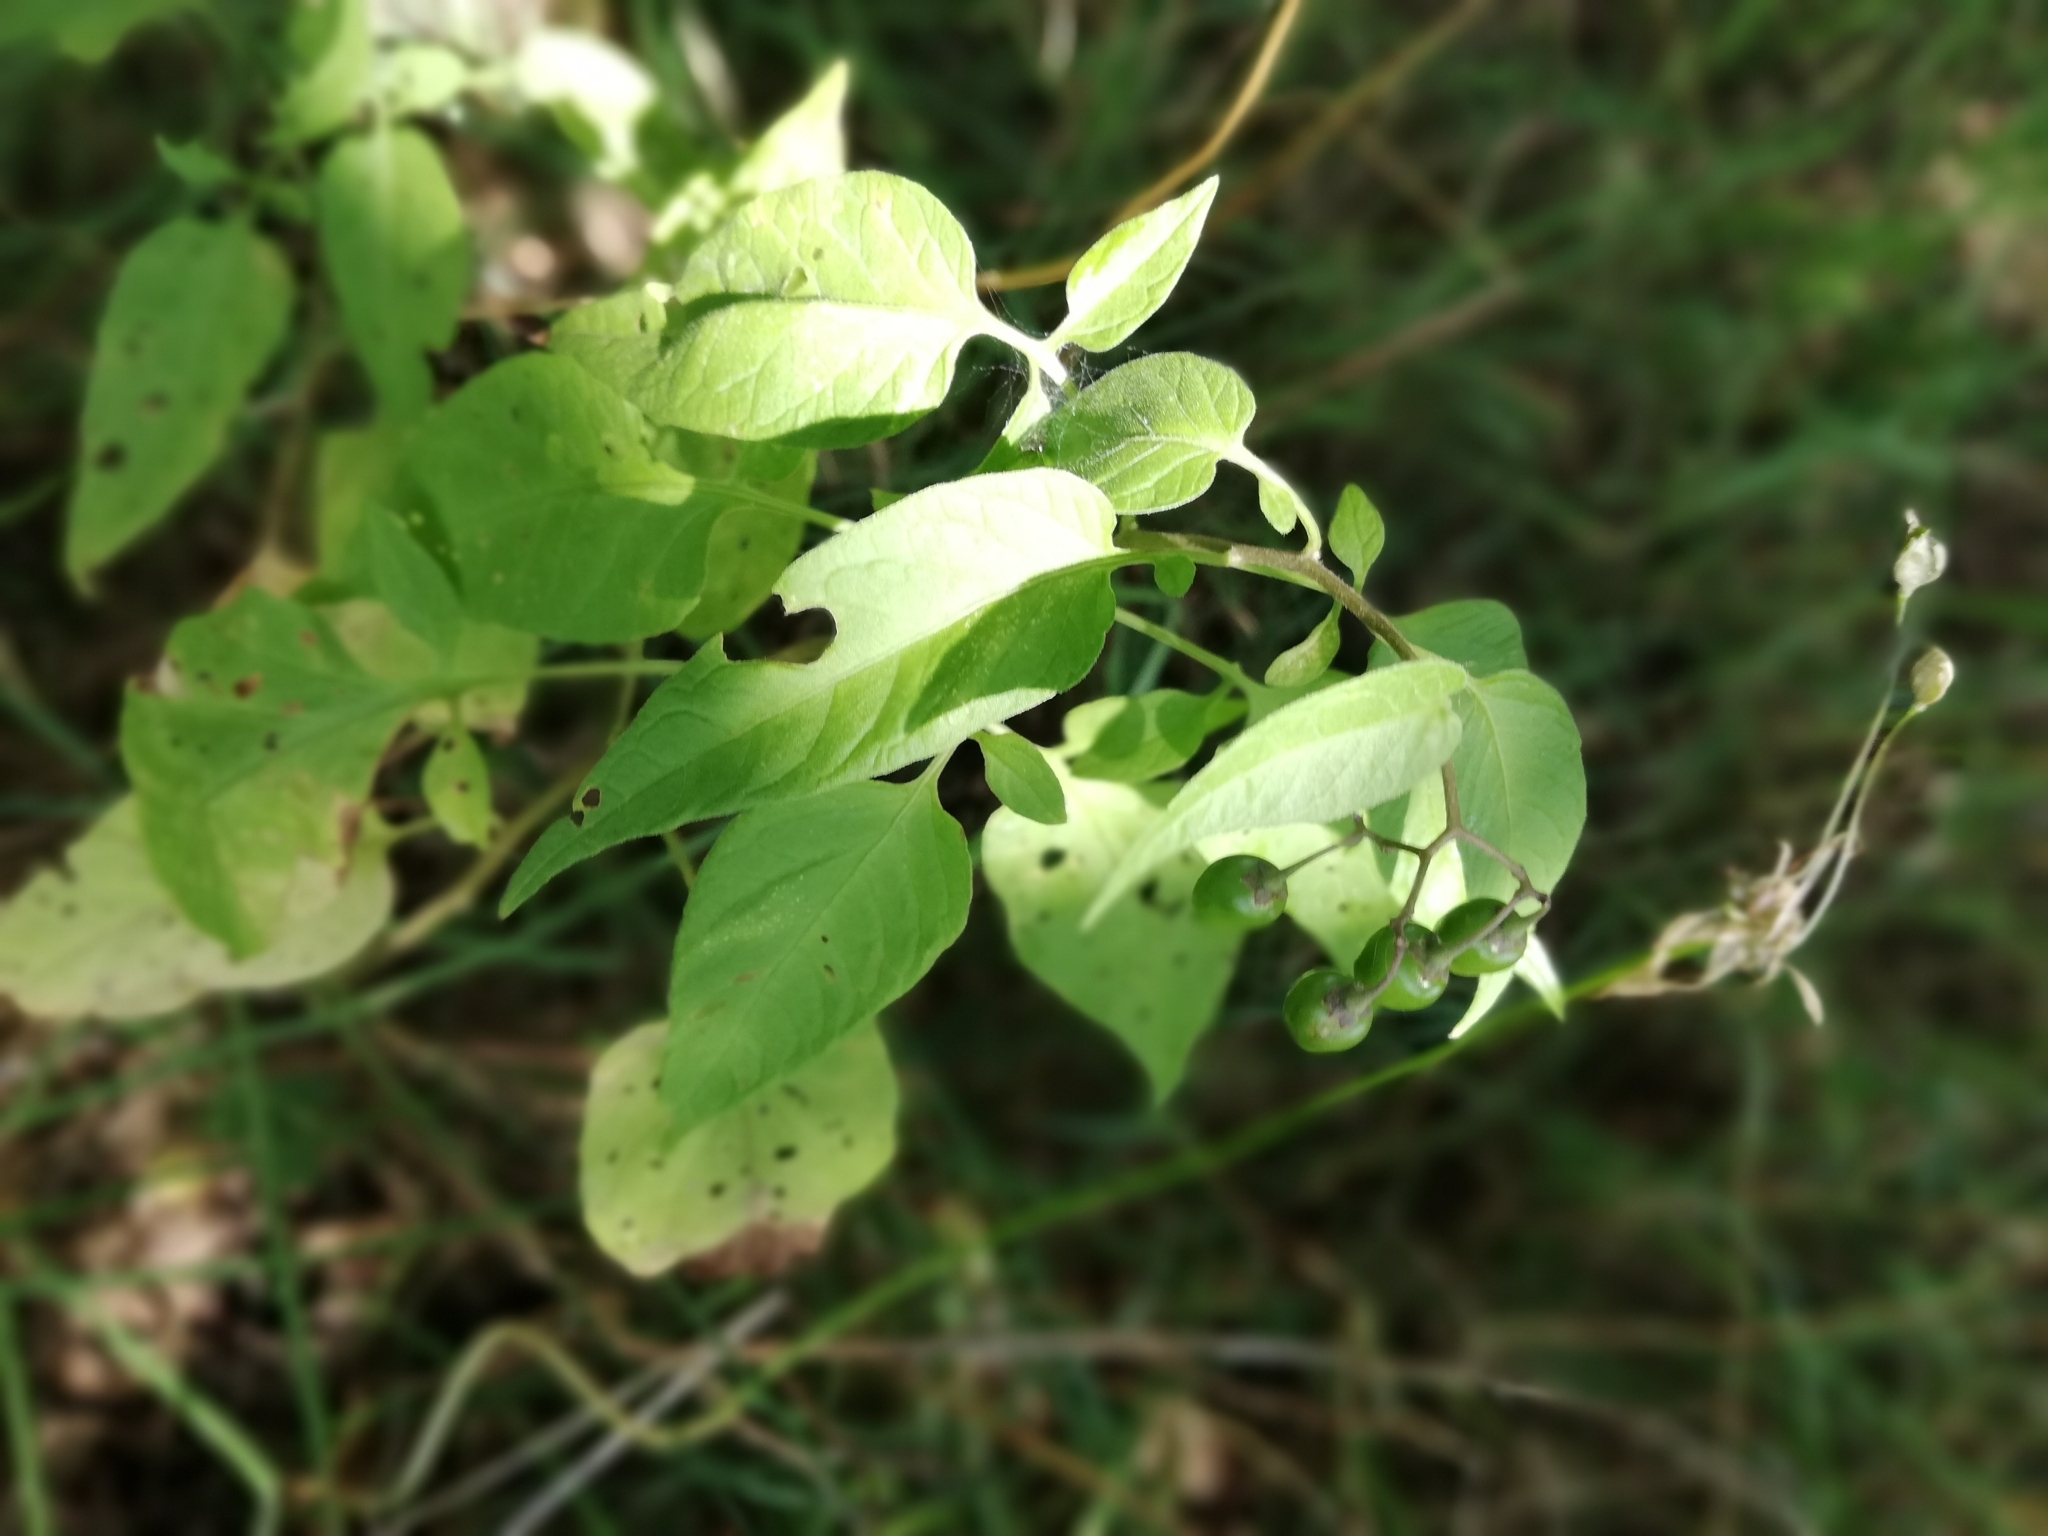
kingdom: Plantae
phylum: Tracheophyta
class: Magnoliopsida
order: Solanales
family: Solanaceae
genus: Solanum
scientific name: Solanum dulcamara
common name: Climbing nightshade
